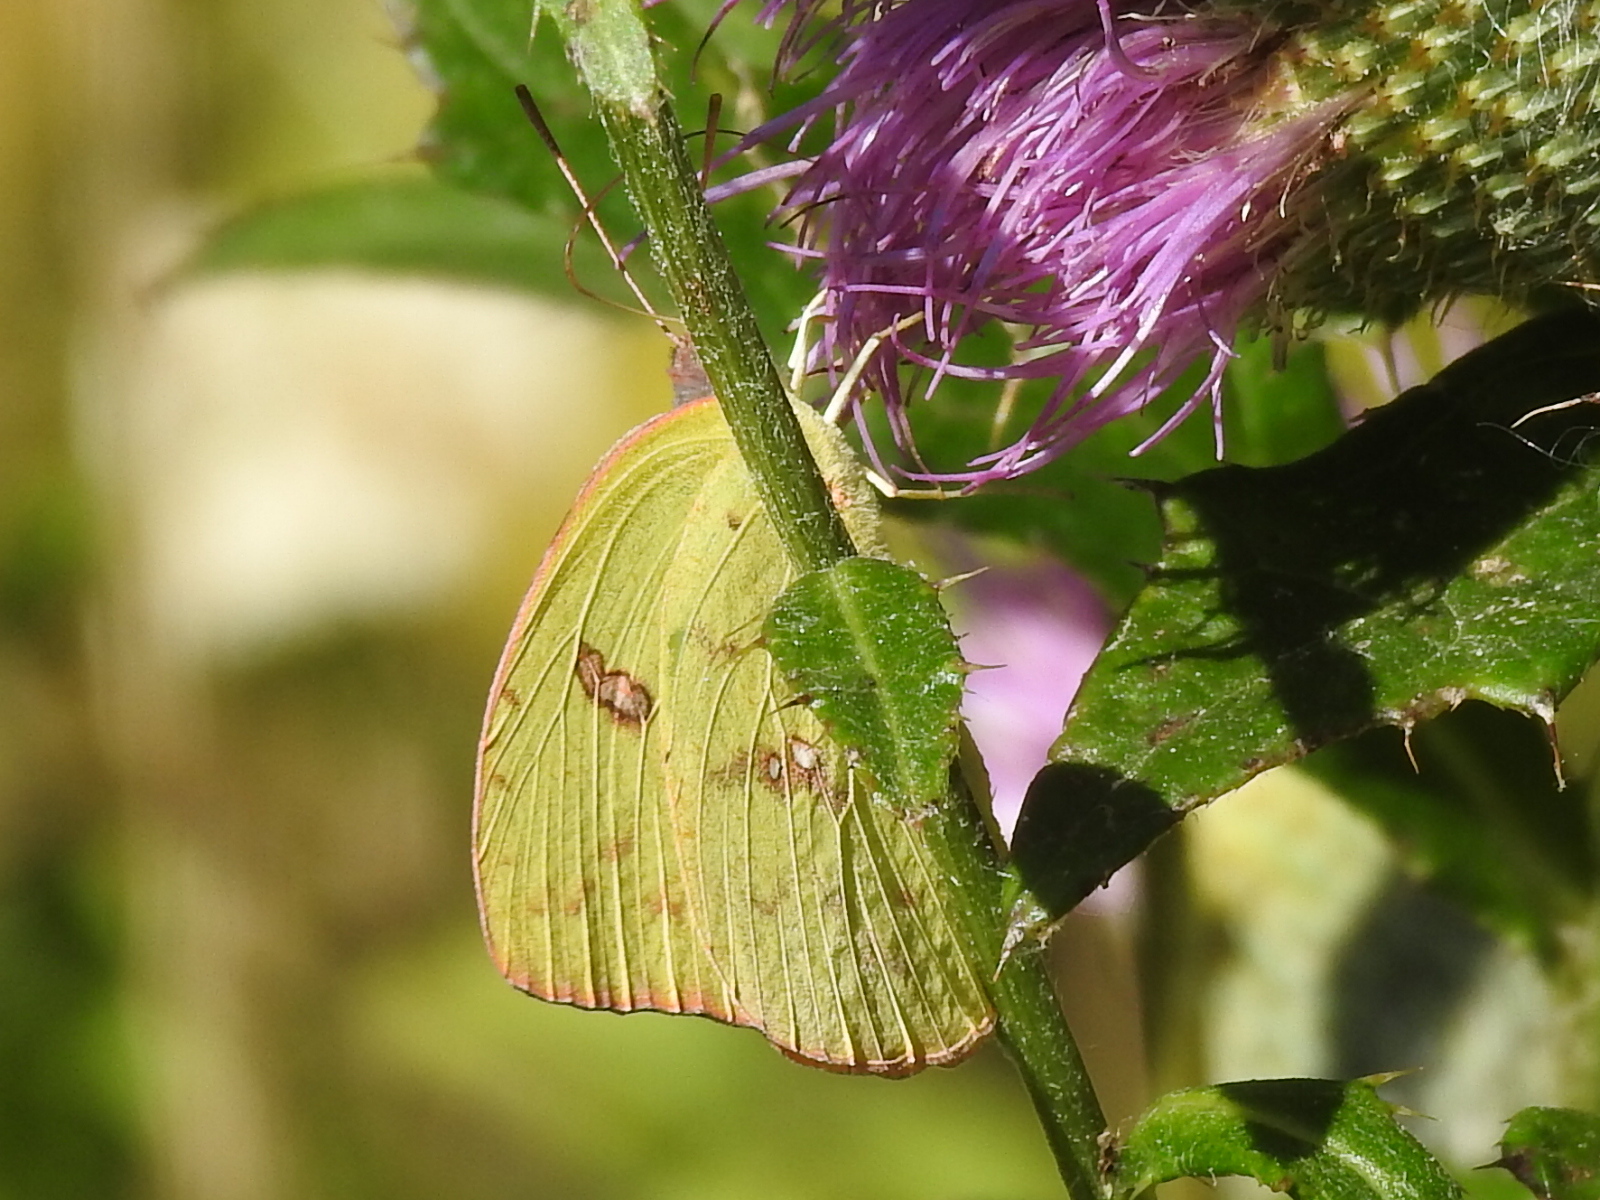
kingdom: Animalia
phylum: Arthropoda
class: Insecta
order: Lepidoptera
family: Pieridae
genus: Phoebis
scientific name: Phoebis sennae
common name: Cloudless sulphur
